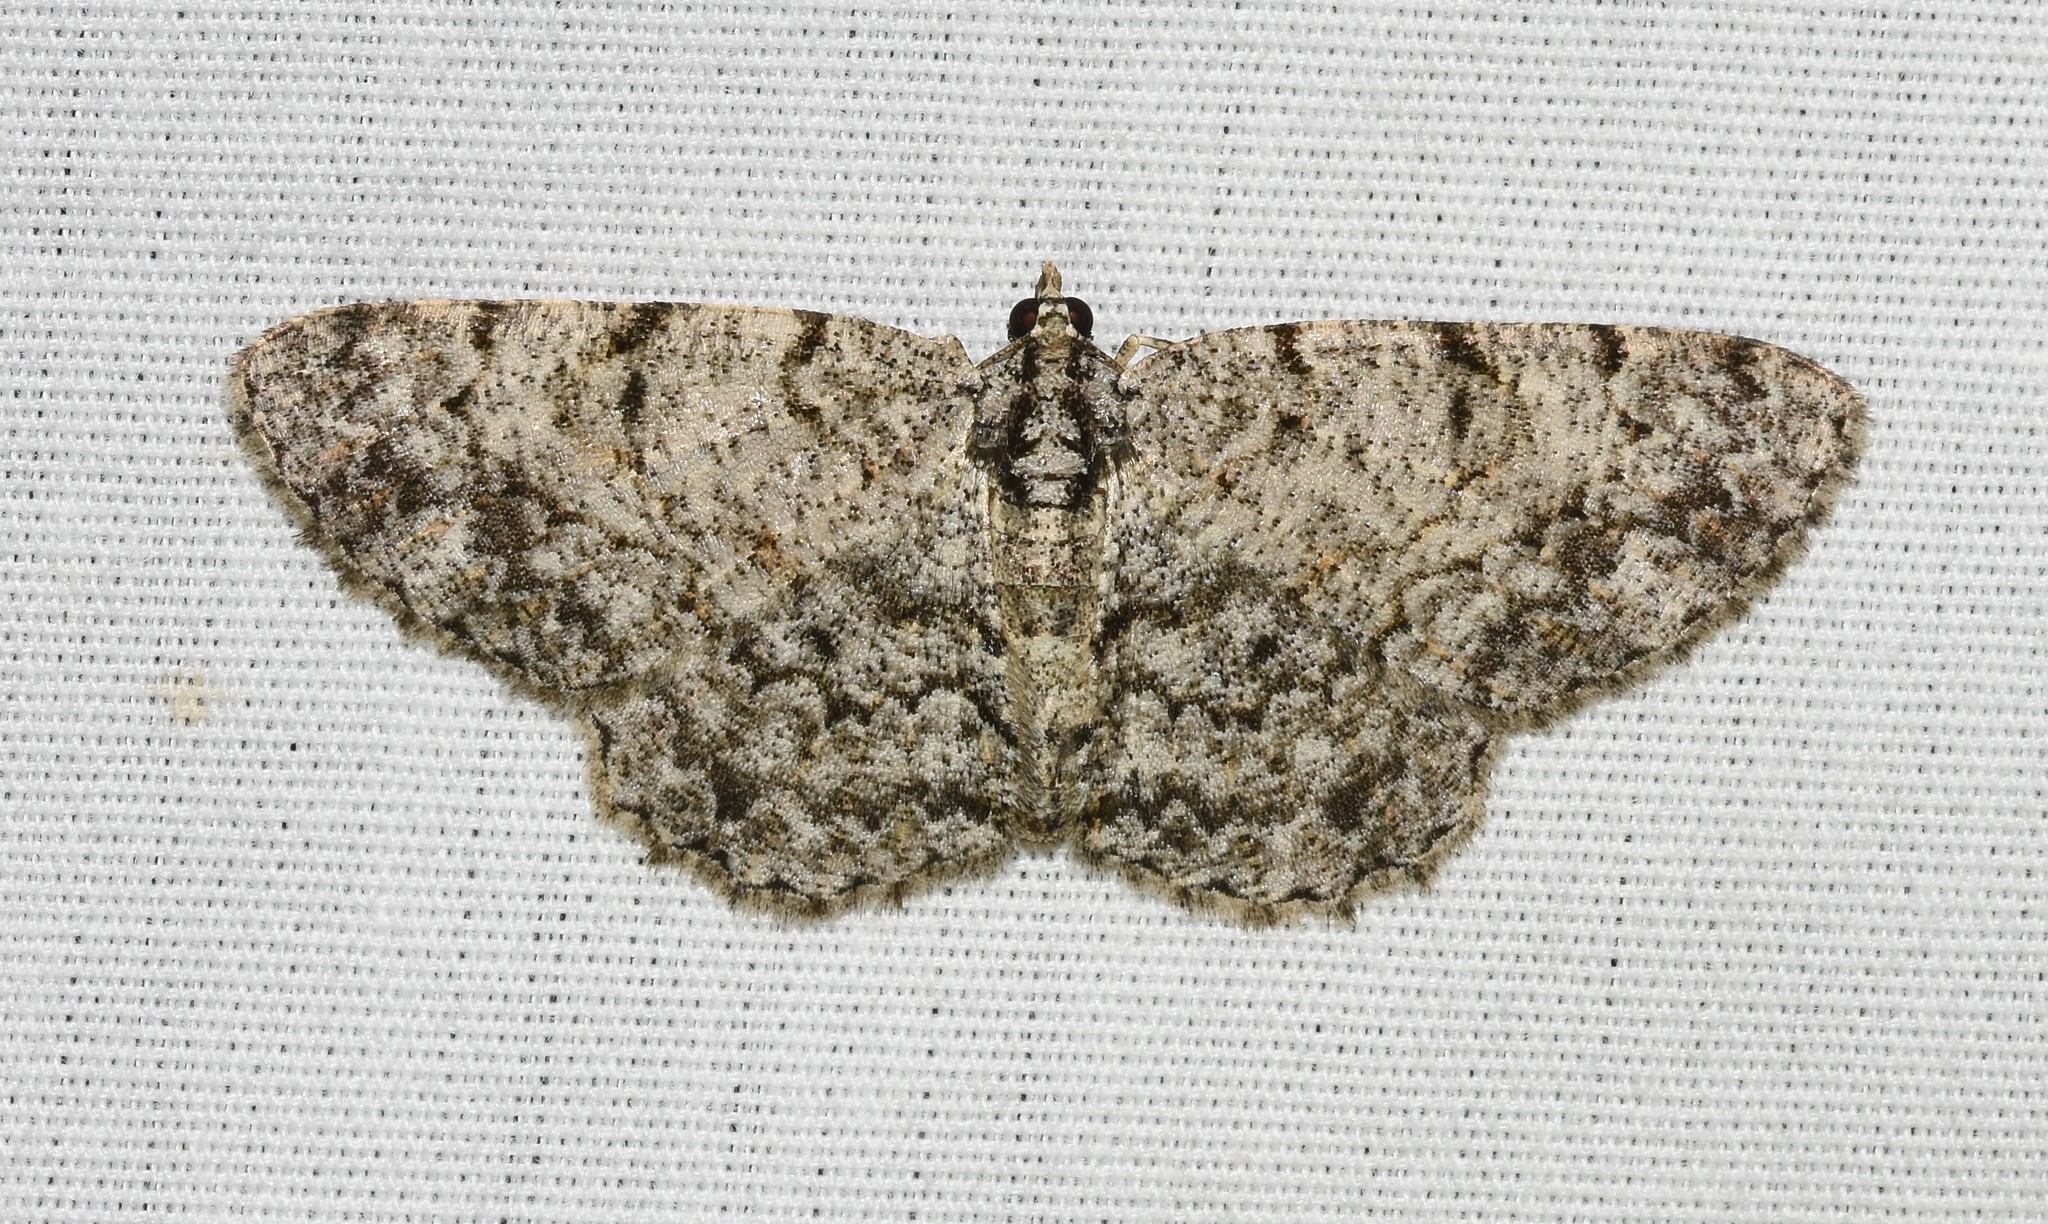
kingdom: Animalia
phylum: Arthropoda
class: Insecta
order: Lepidoptera
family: Geometridae
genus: Protoboarmia
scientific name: Protoboarmia porcelaria
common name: Porcelain gray
